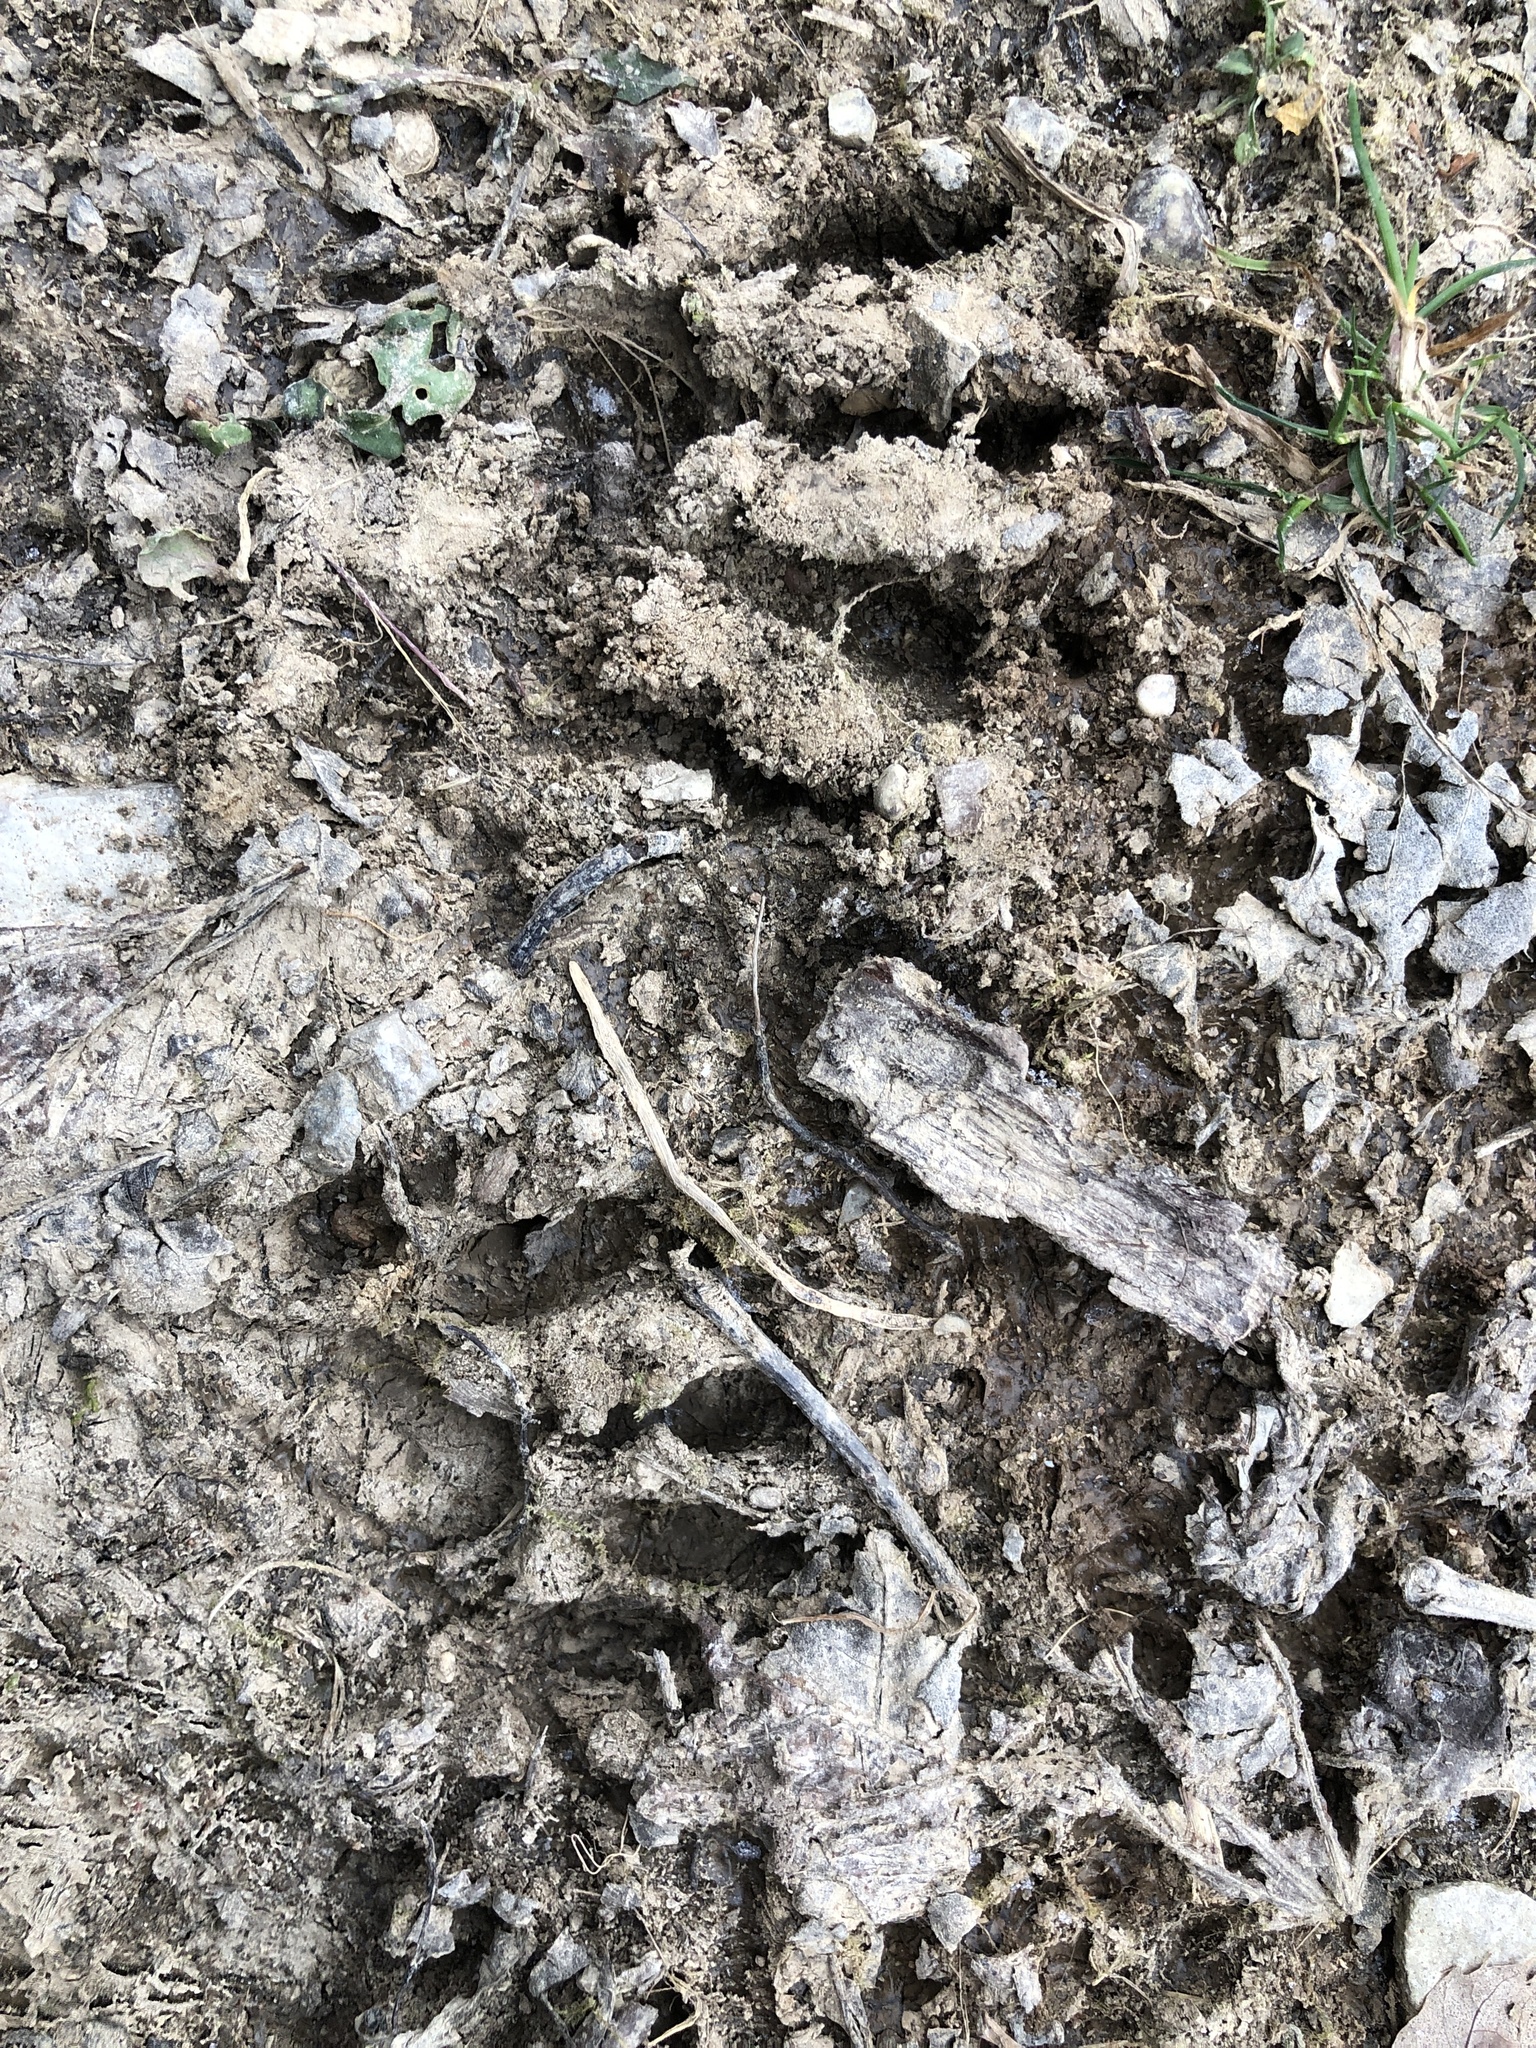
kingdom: Animalia
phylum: Chordata
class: Mammalia
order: Carnivora
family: Procyonidae
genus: Procyon
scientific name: Procyon lotor
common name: Raccoon
